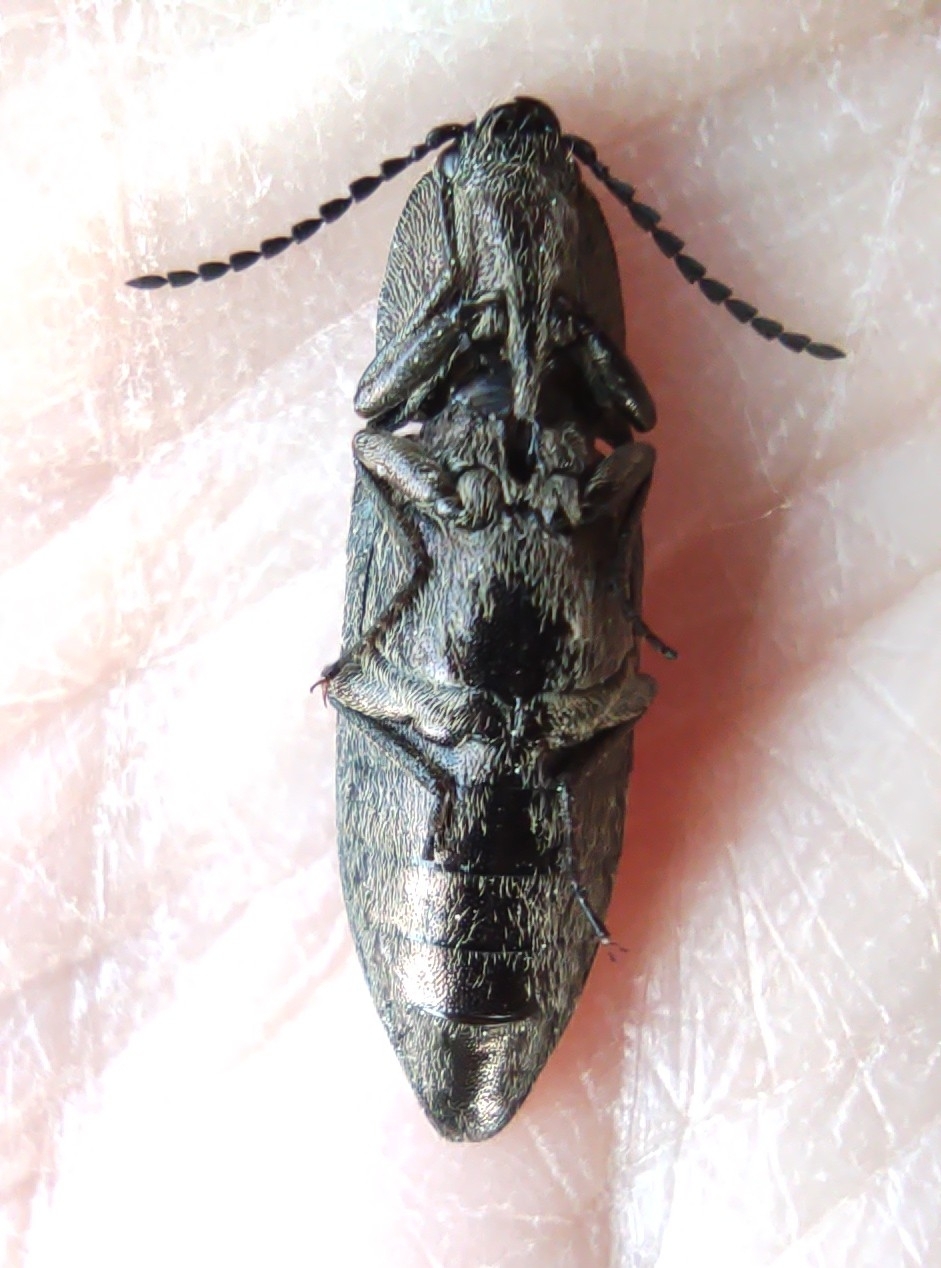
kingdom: Animalia
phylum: Arthropoda
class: Insecta
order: Coleoptera
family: Elateridae
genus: Actenicerus
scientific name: Actenicerus sjaelandicus
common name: Marsh click beetle
